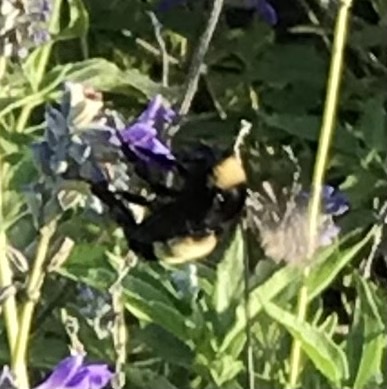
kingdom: Animalia
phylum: Arthropoda
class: Insecta
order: Hymenoptera
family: Apidae
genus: Bombus
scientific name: Bombus pensylvanicus
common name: Bumble bee
